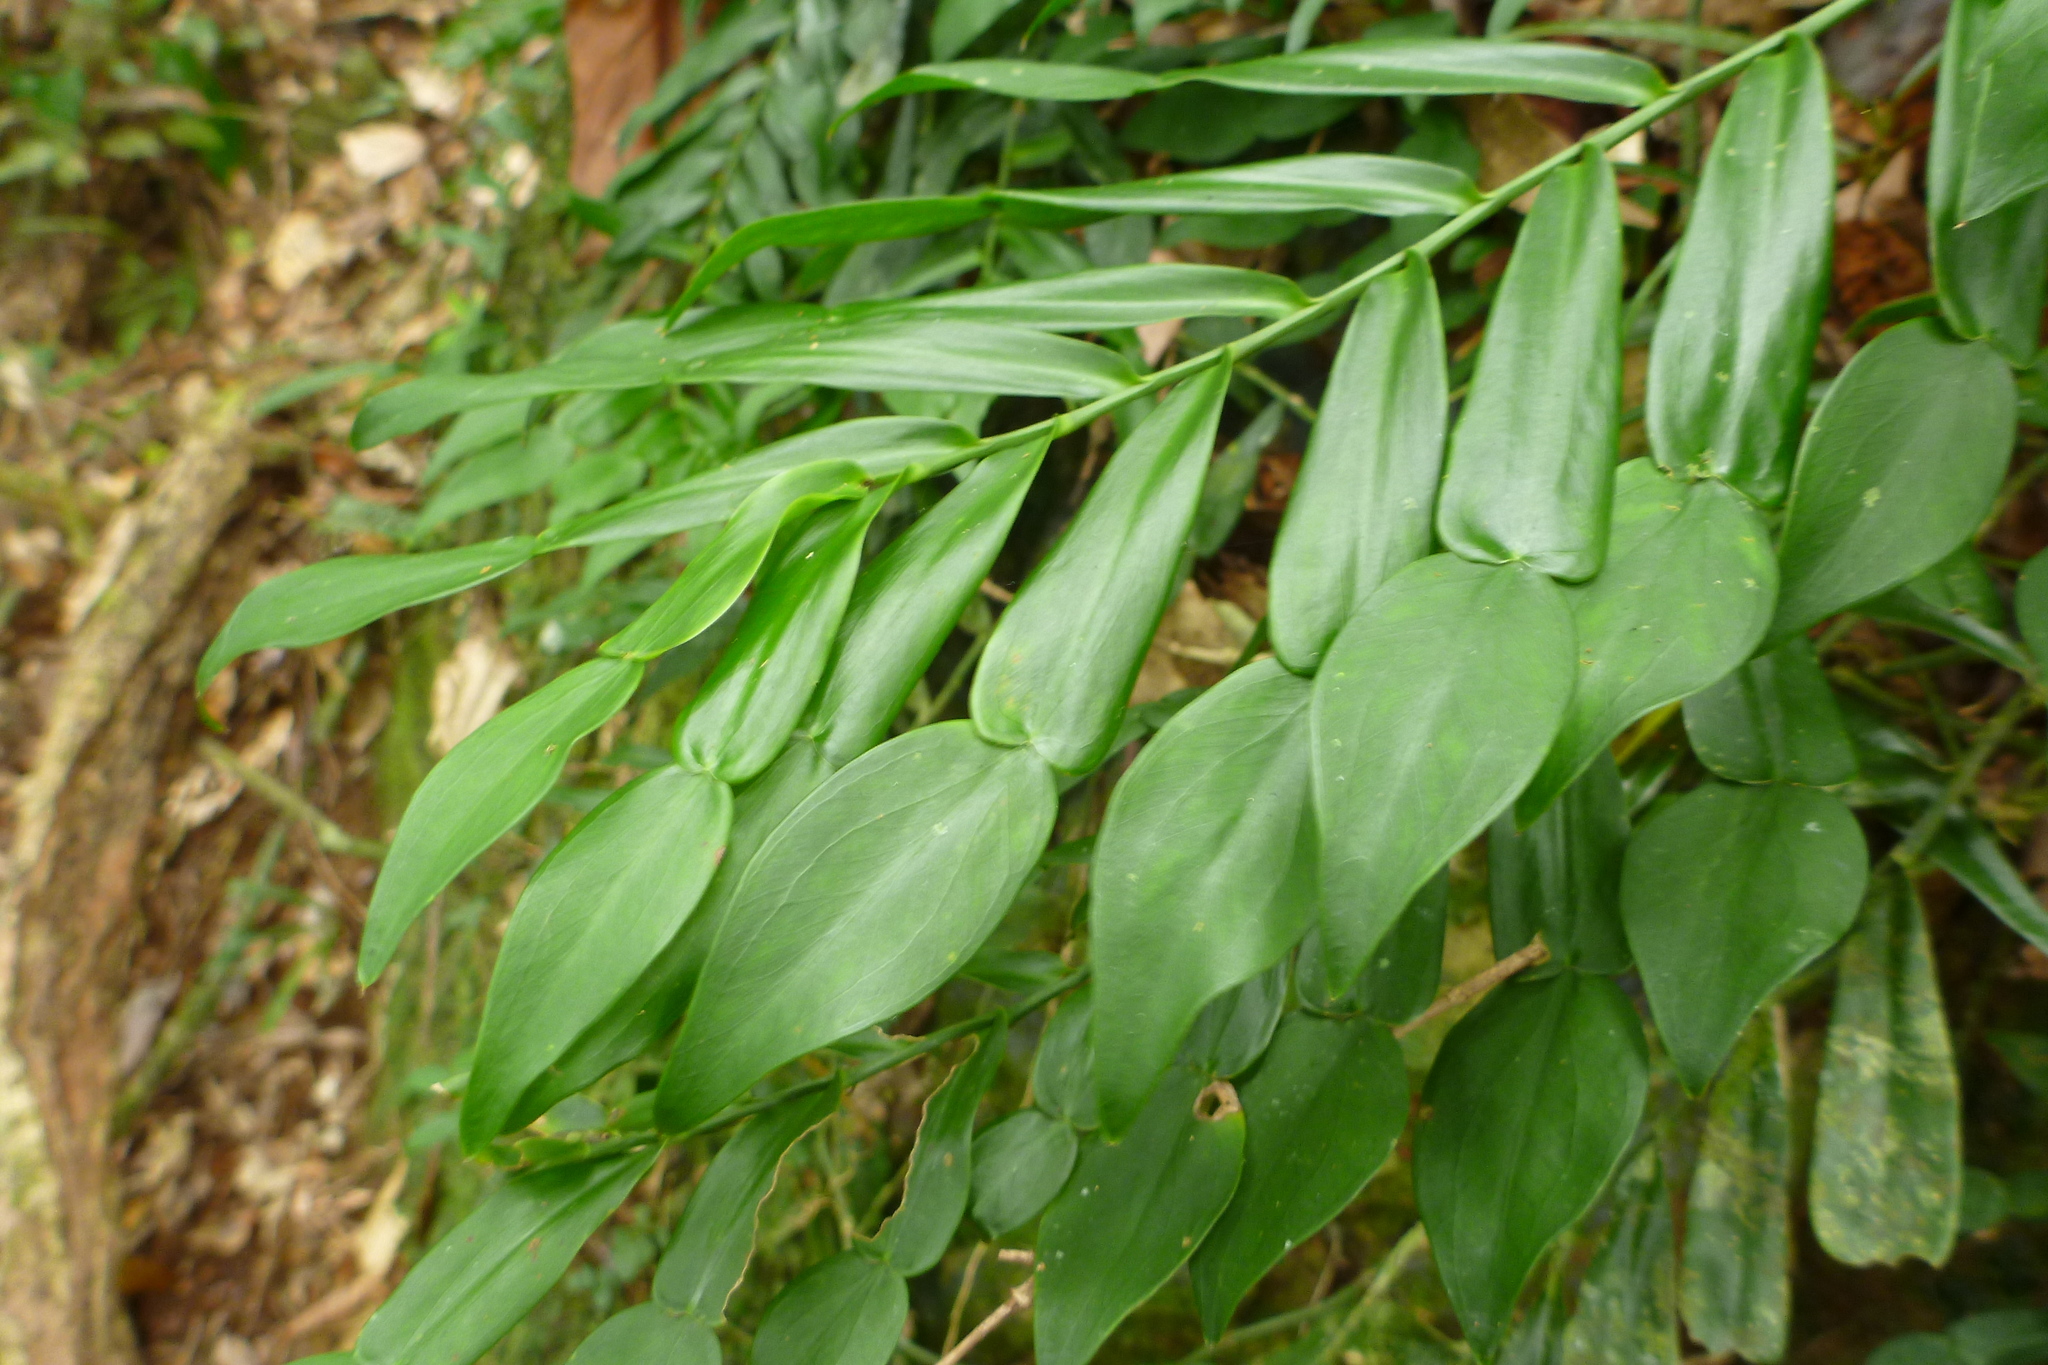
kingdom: Plantae
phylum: Tracheophyta
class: Liliopsida
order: Alismatales
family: Araceae
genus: Pothos
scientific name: Pothos longipes
